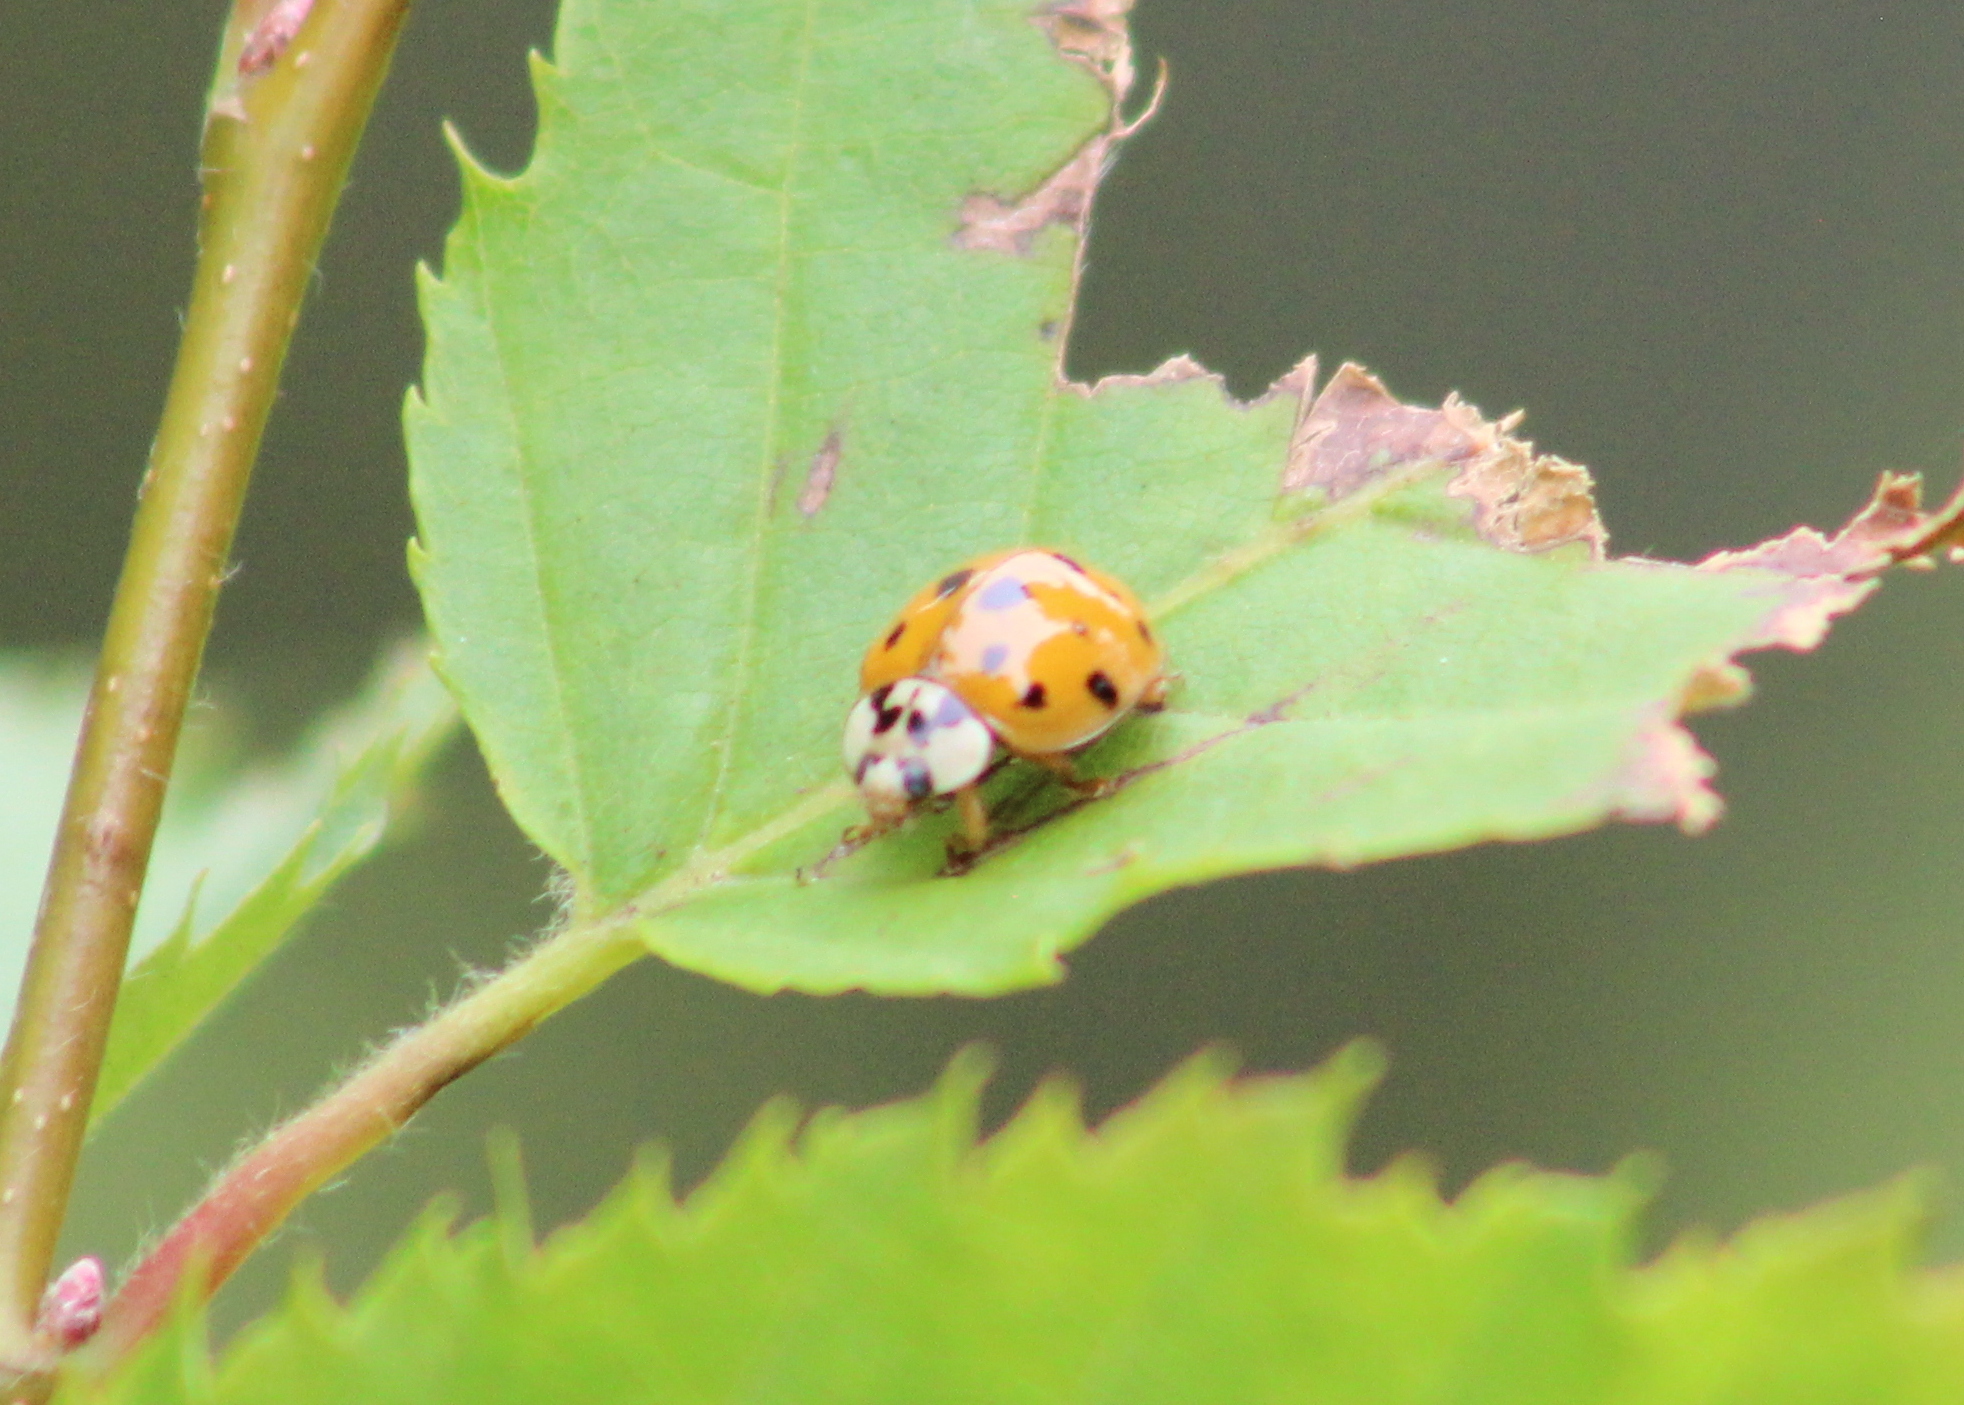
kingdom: Animalia
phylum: Arthropoda
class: Insecta
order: Coleoptera
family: Coccinellidae
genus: Harmonia
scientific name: Harmonia axyridis
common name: Harlequin ladybird
